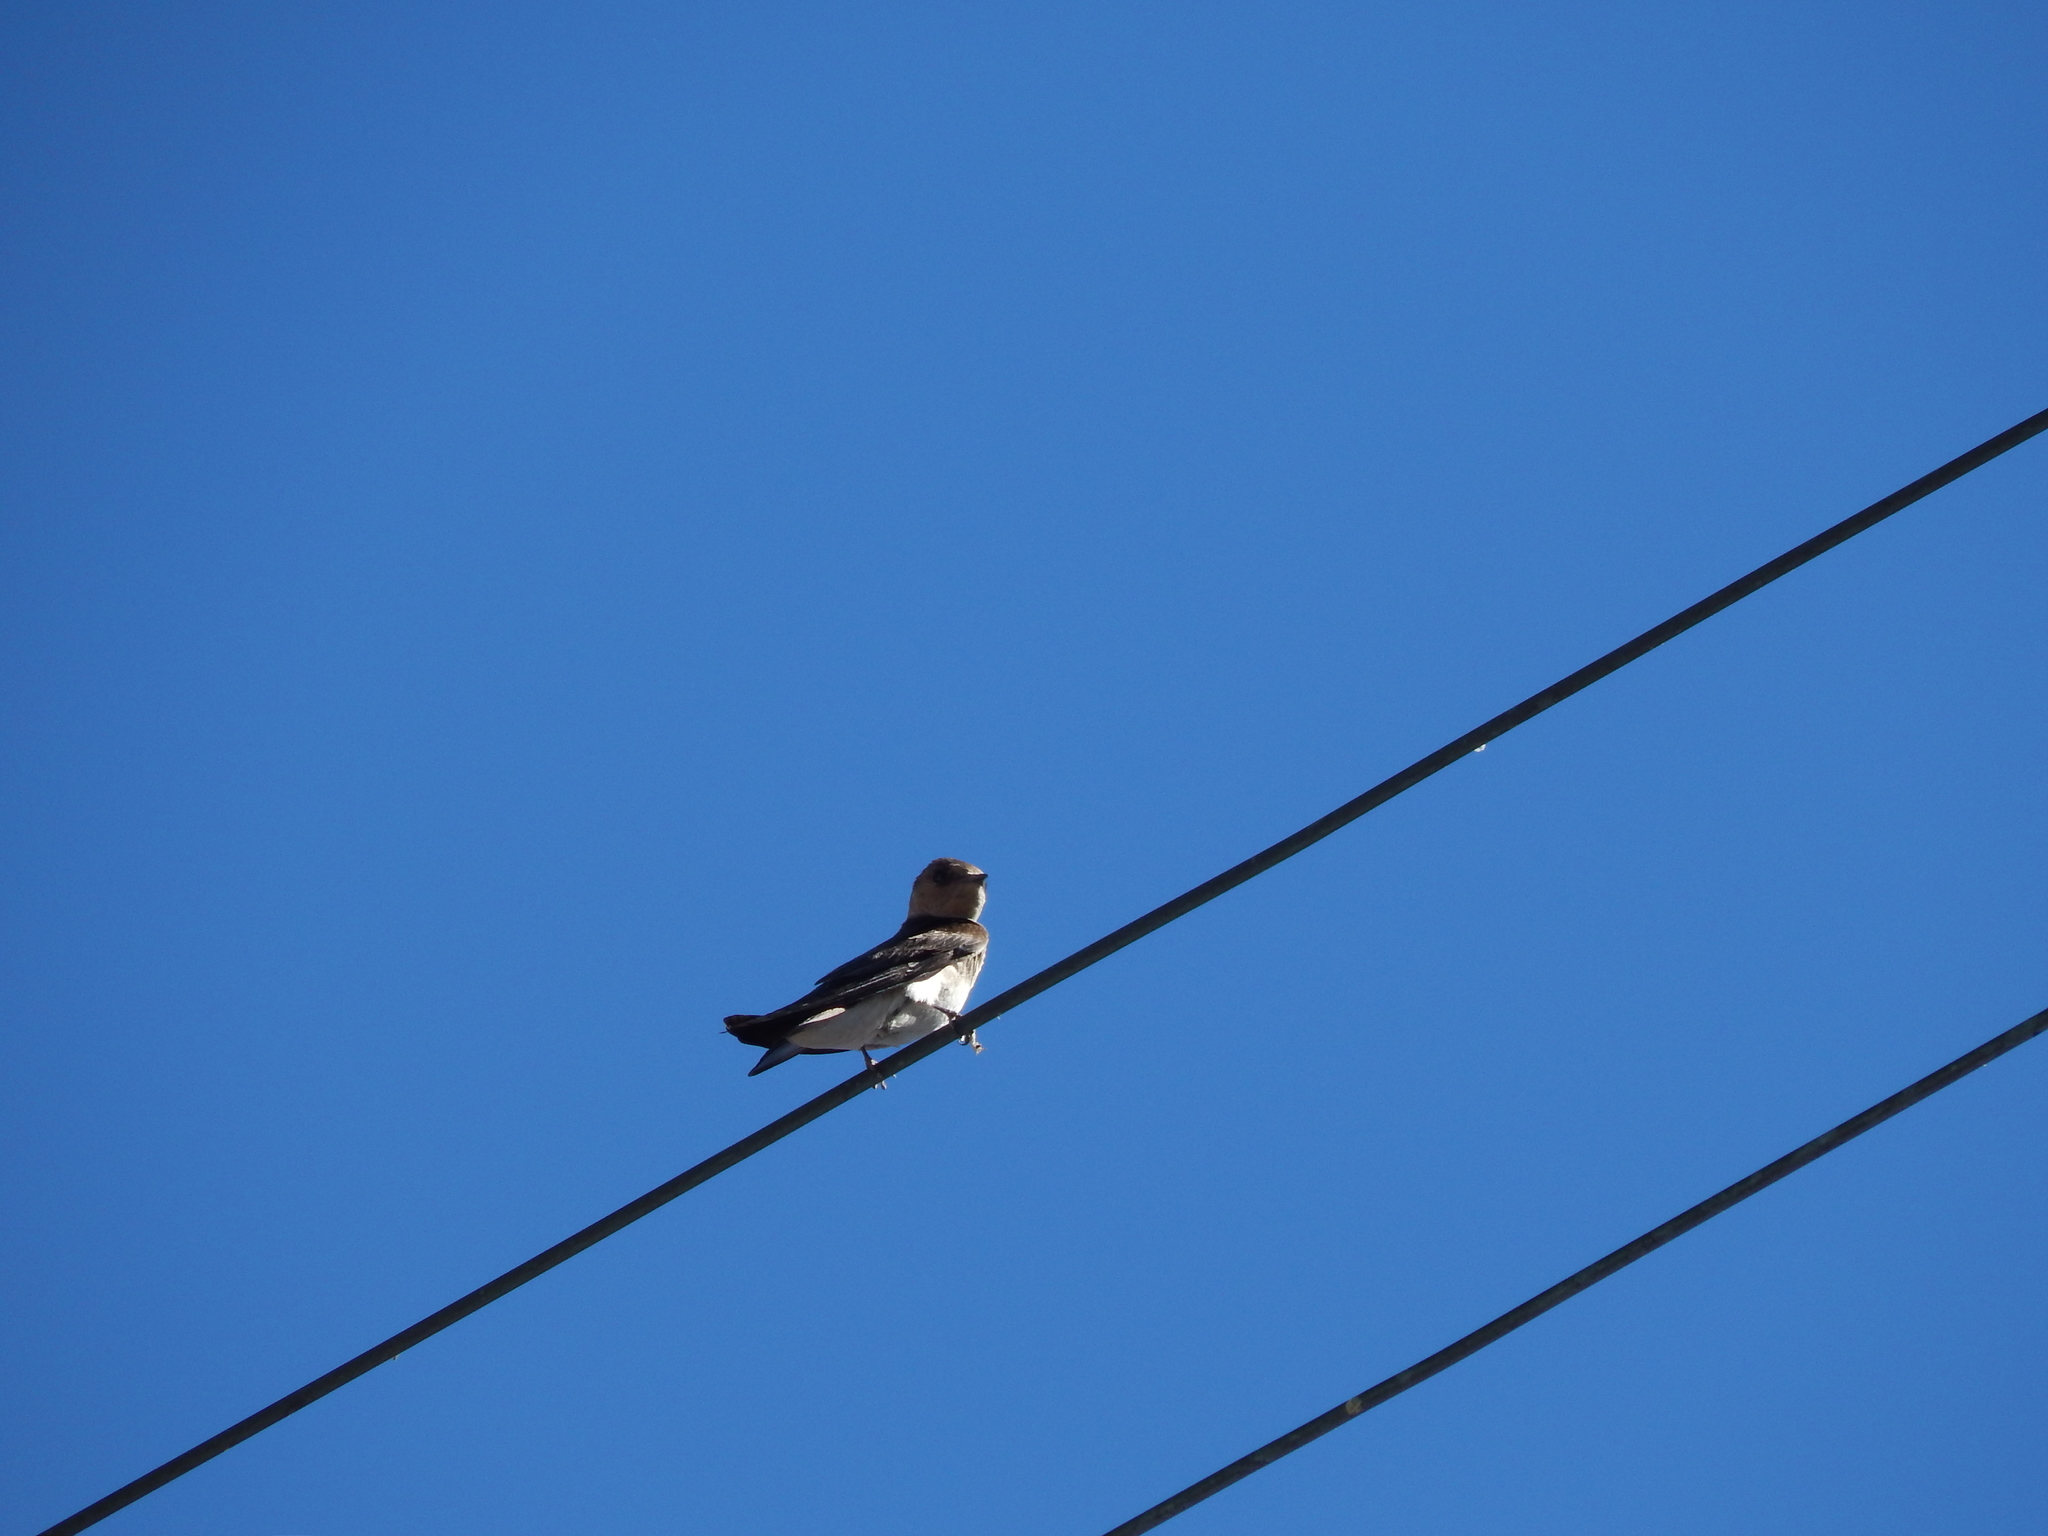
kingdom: Animalia
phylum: Chordata
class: Aves
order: Passeriformes
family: Hirundinidae
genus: Stelgidopteryx
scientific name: Stelgidopteryx serripennis
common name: Northern rough-winged swallow
